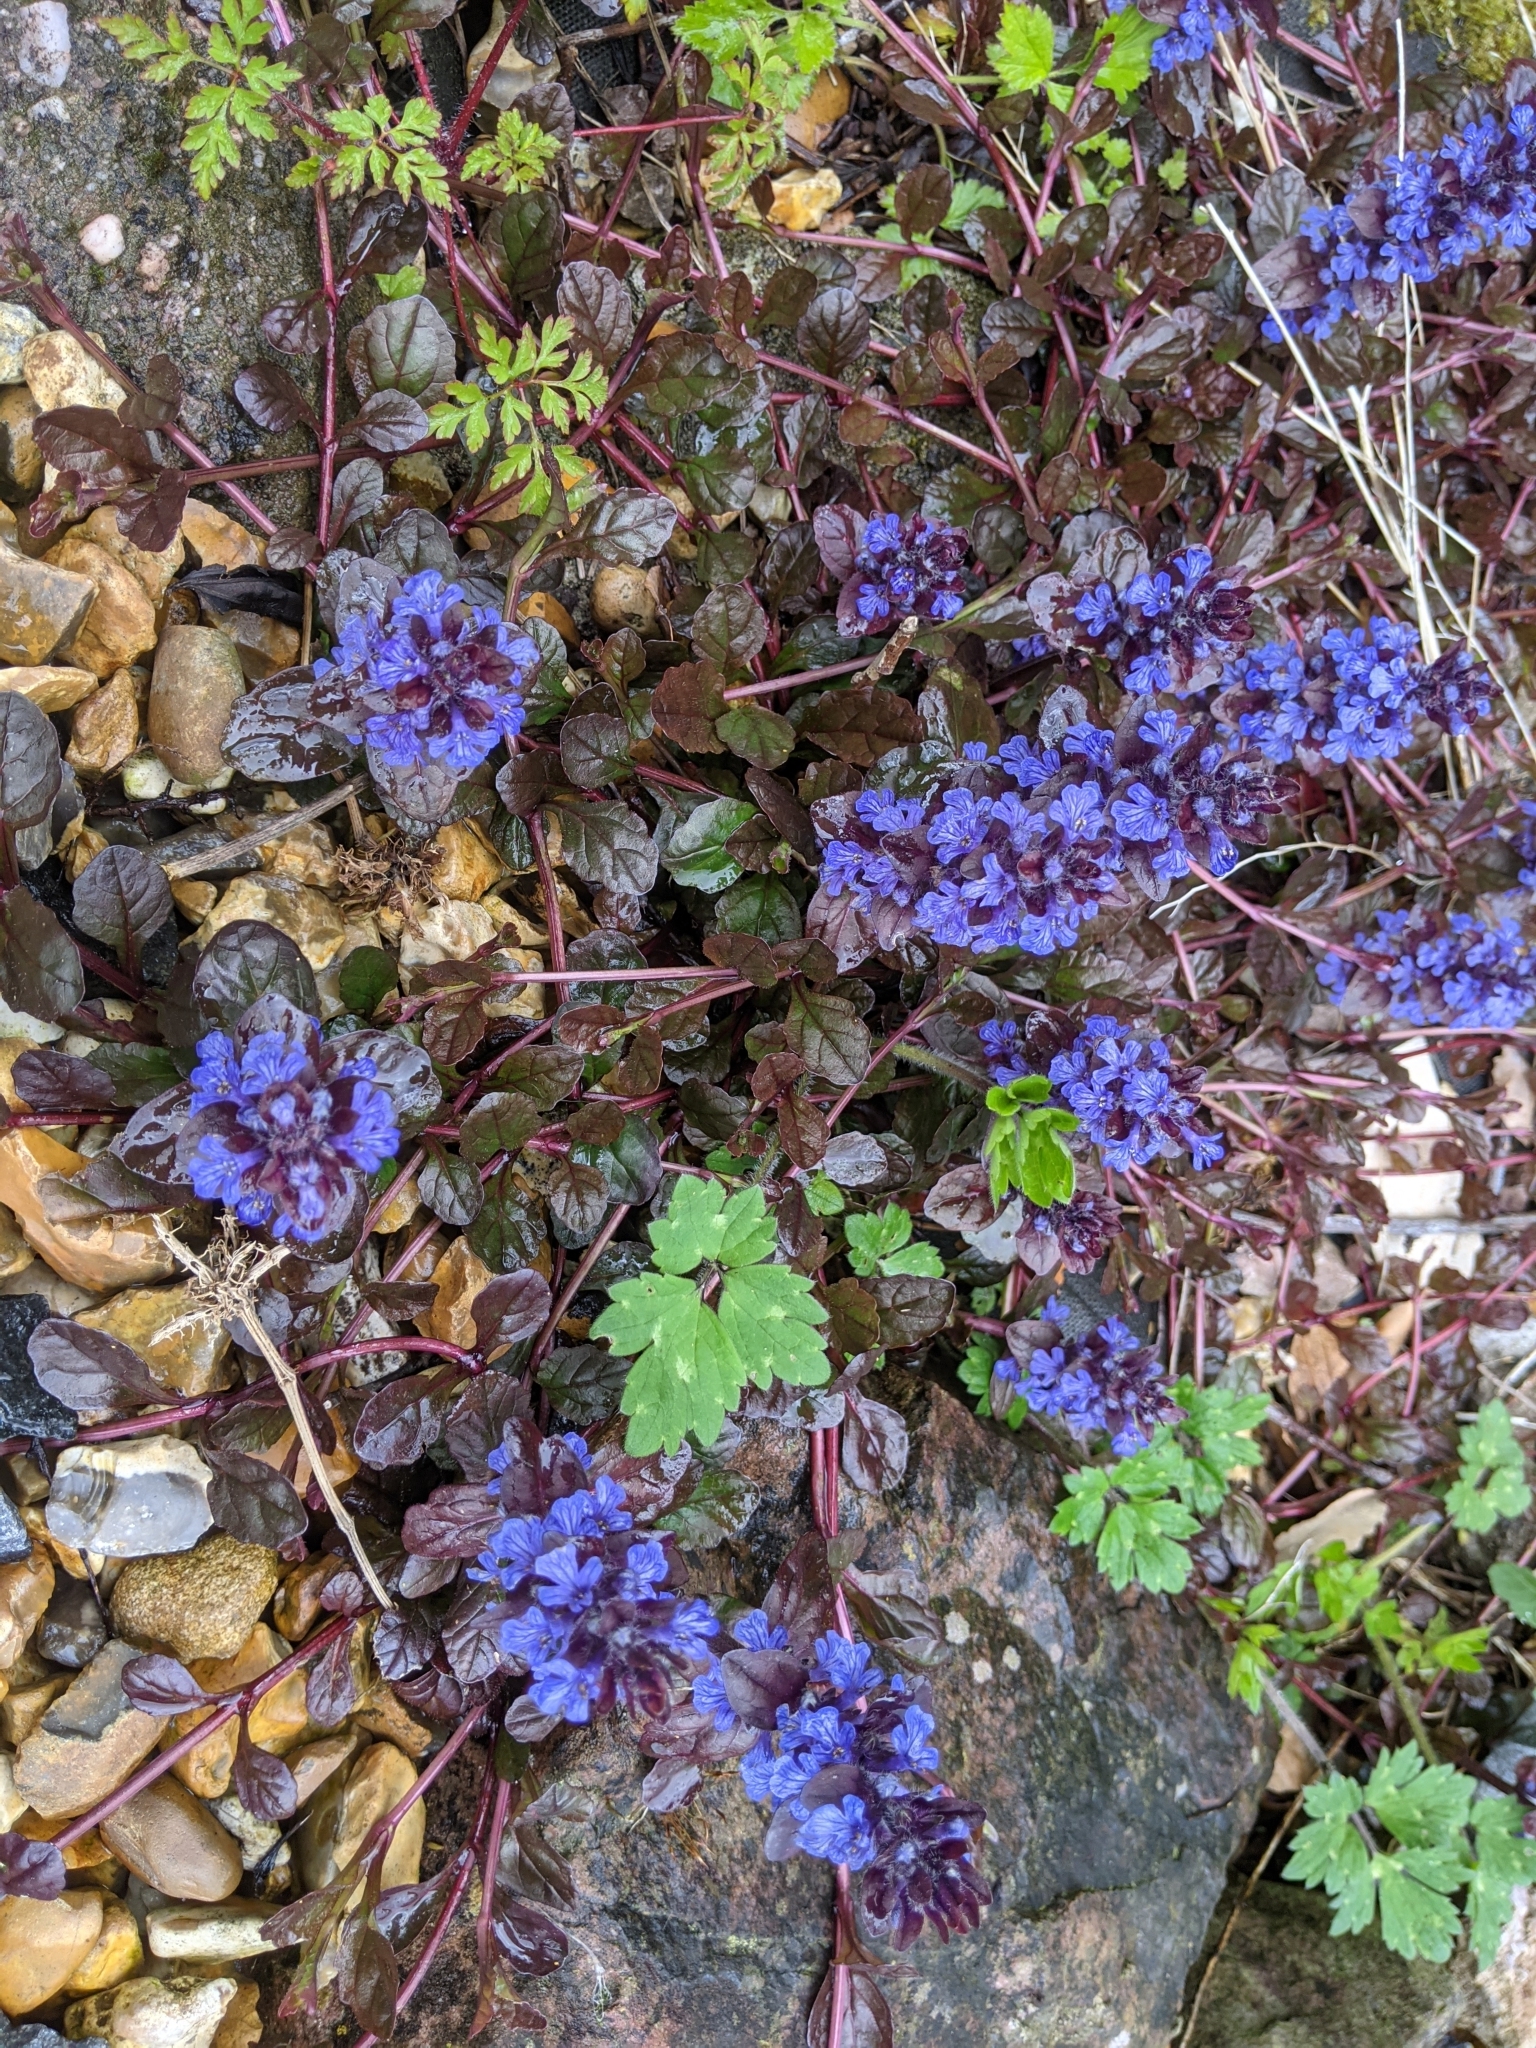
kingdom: Plantae
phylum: Tracheophyta
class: Magnoliopsida
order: Lamiales
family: Lamiaceae
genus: Ajuga
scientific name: Ajuga reptans
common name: Bugle
